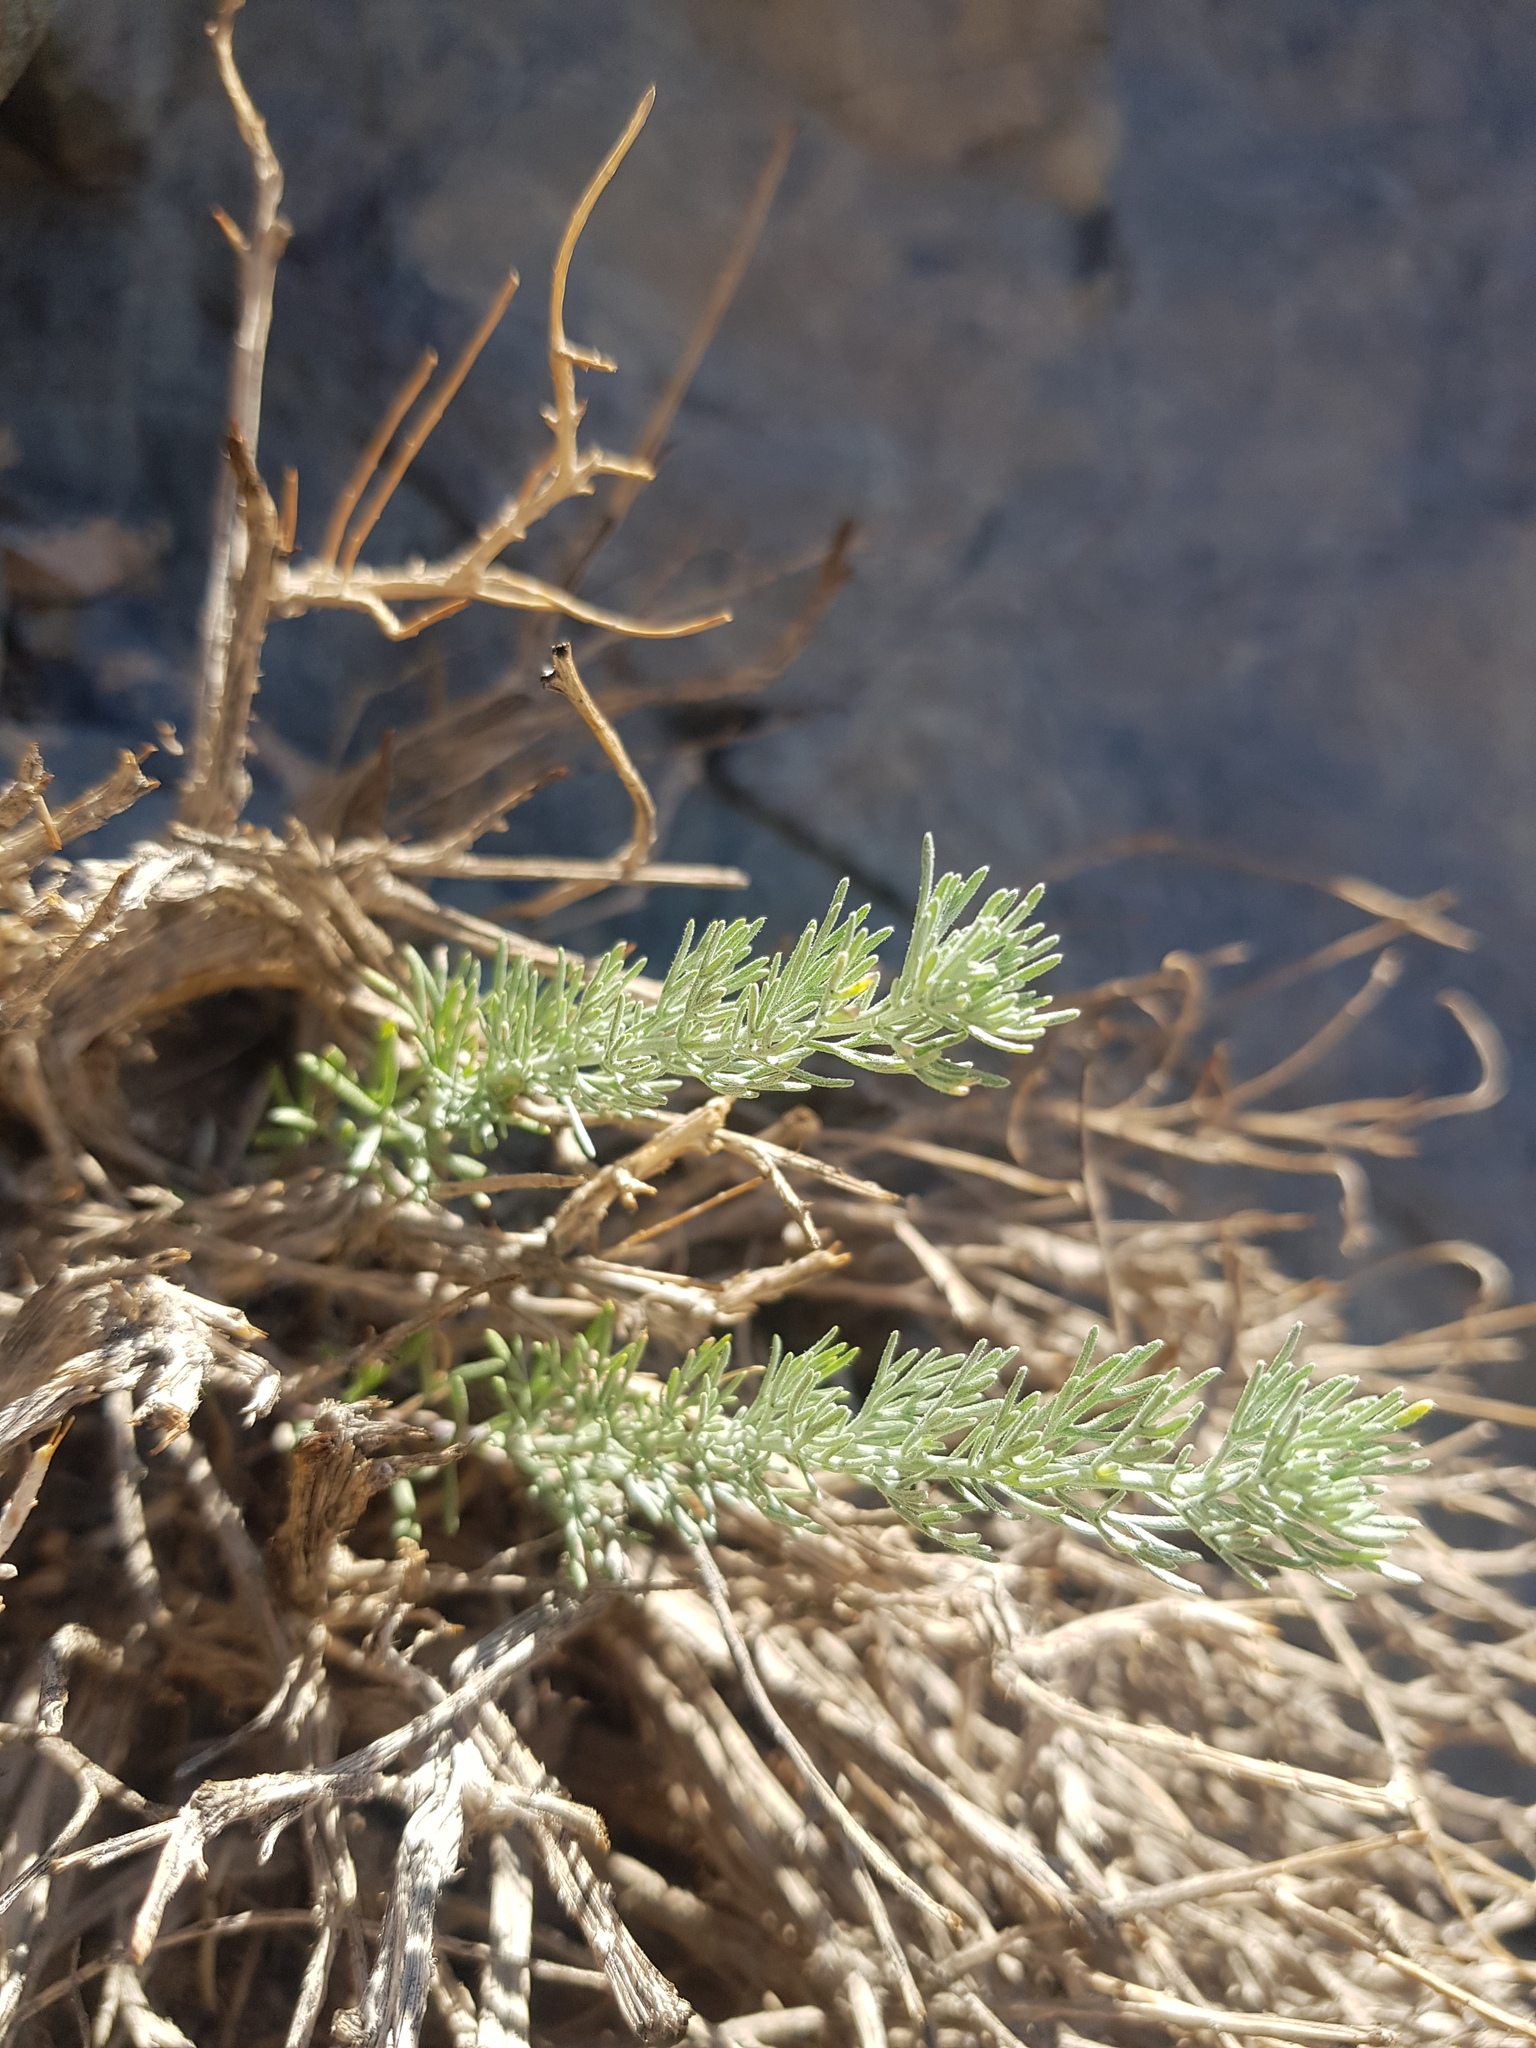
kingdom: Plantae
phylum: Tracheophyta
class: Magnoliopsida
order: Asterales
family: Asteraceae
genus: Artemisia
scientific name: Artemisia xerophytica
